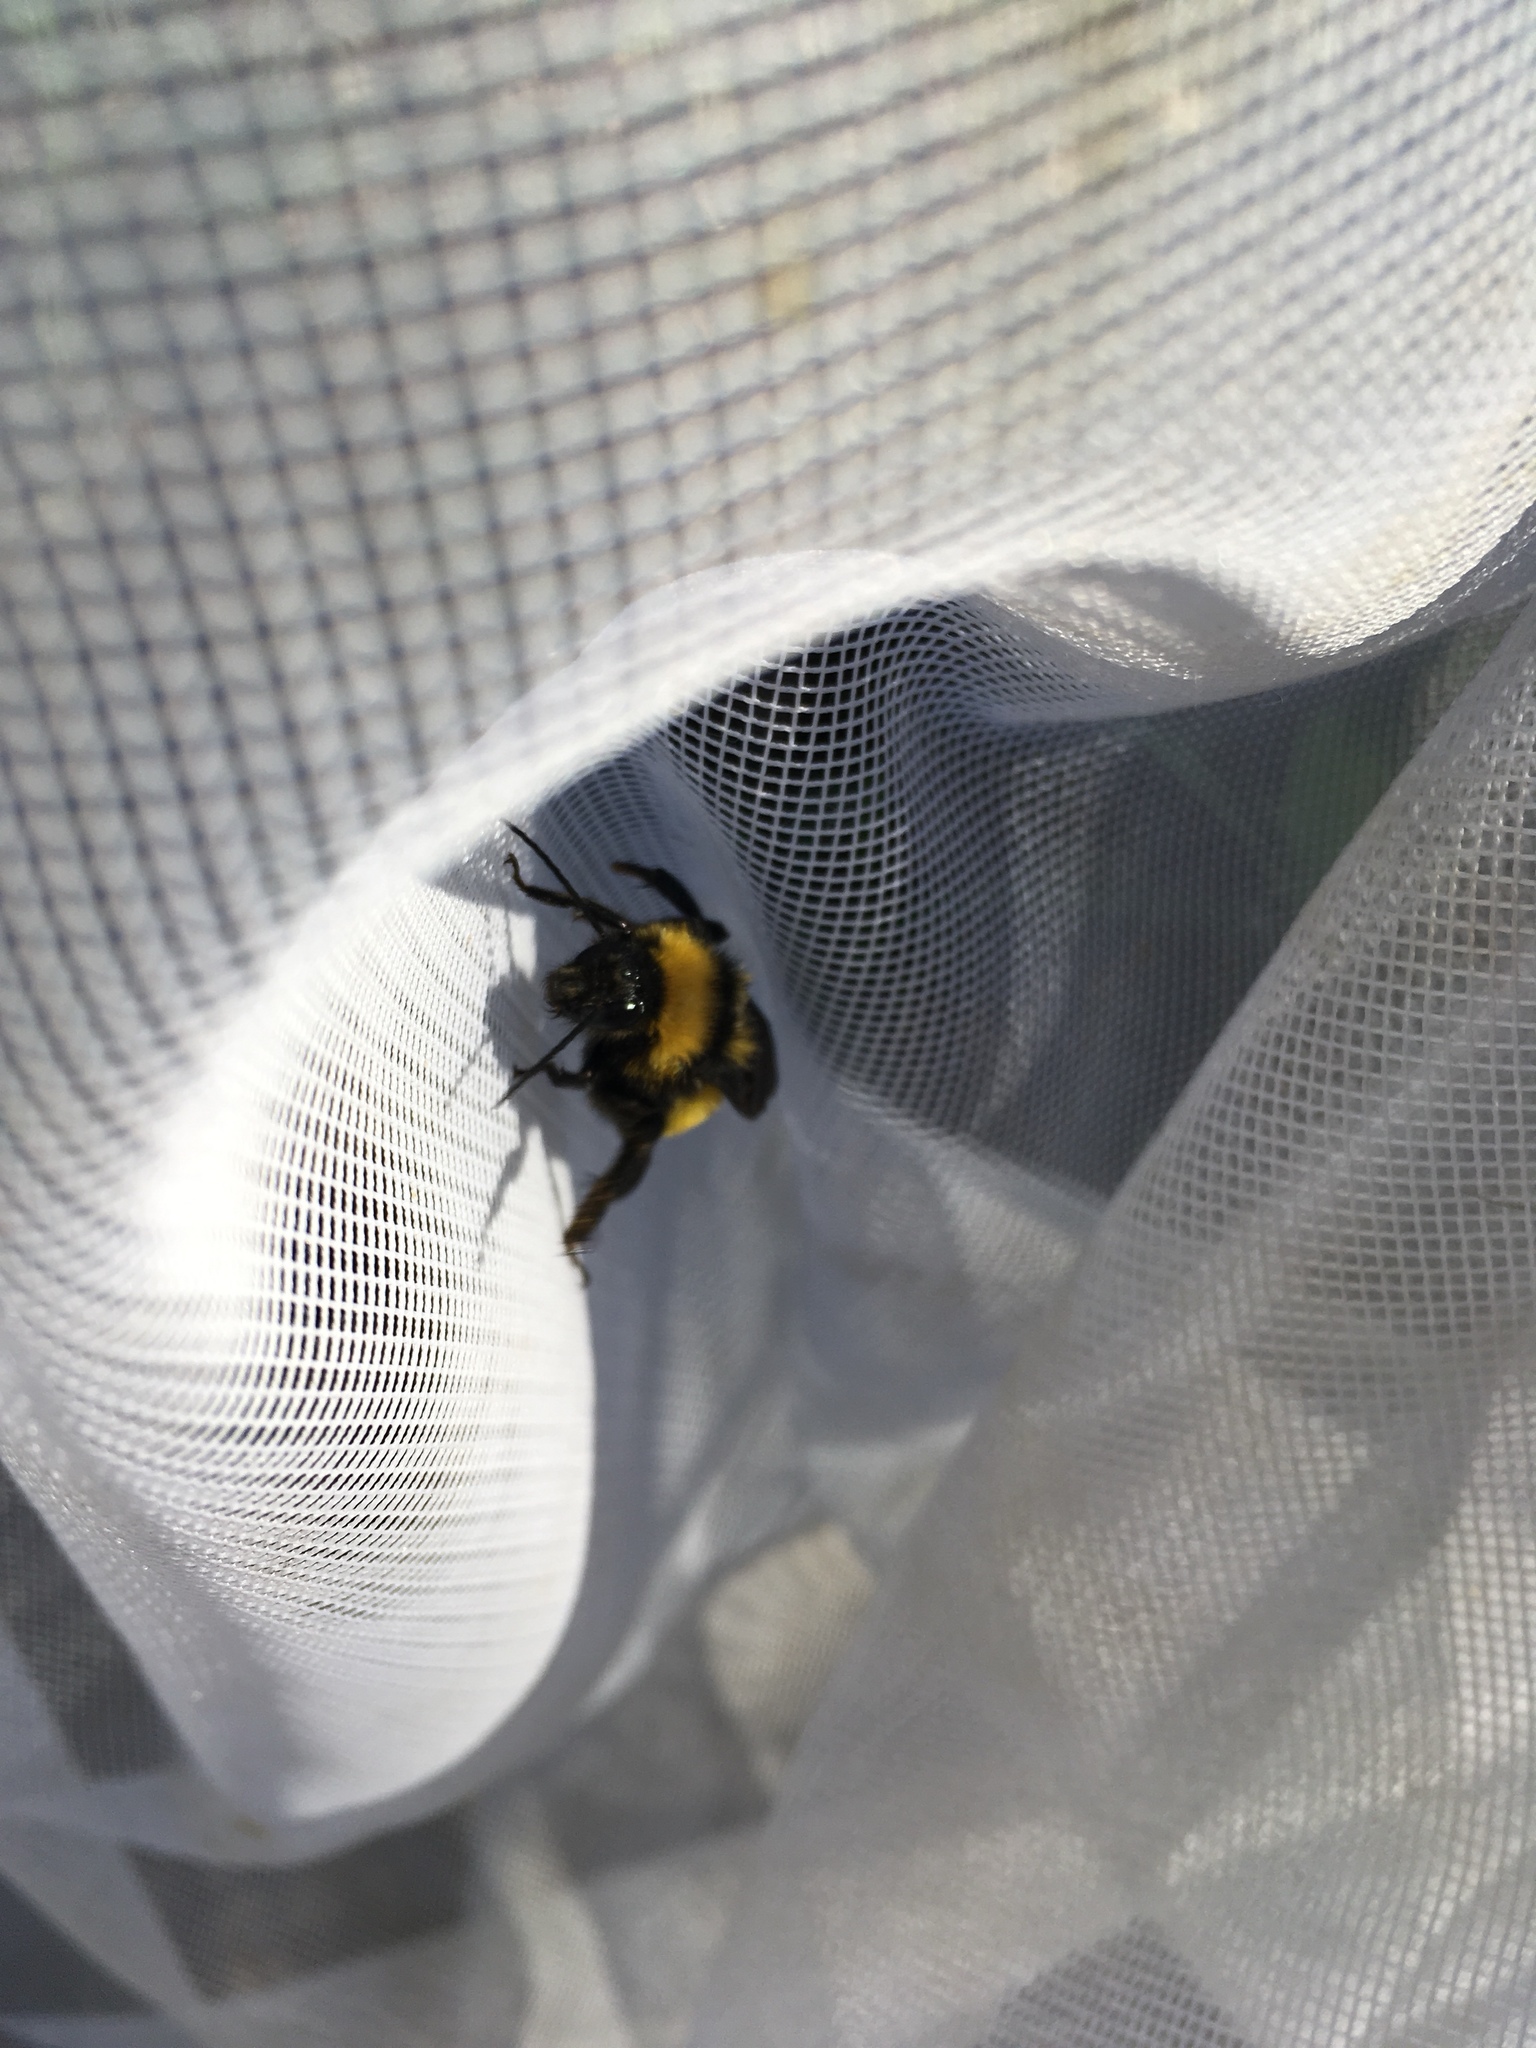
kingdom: Animalia
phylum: Arthropoda
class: Insecta
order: Hymenoptera
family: Apidae
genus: Bombus
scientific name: Bombus sonorus
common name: Sonoran bumble bee
